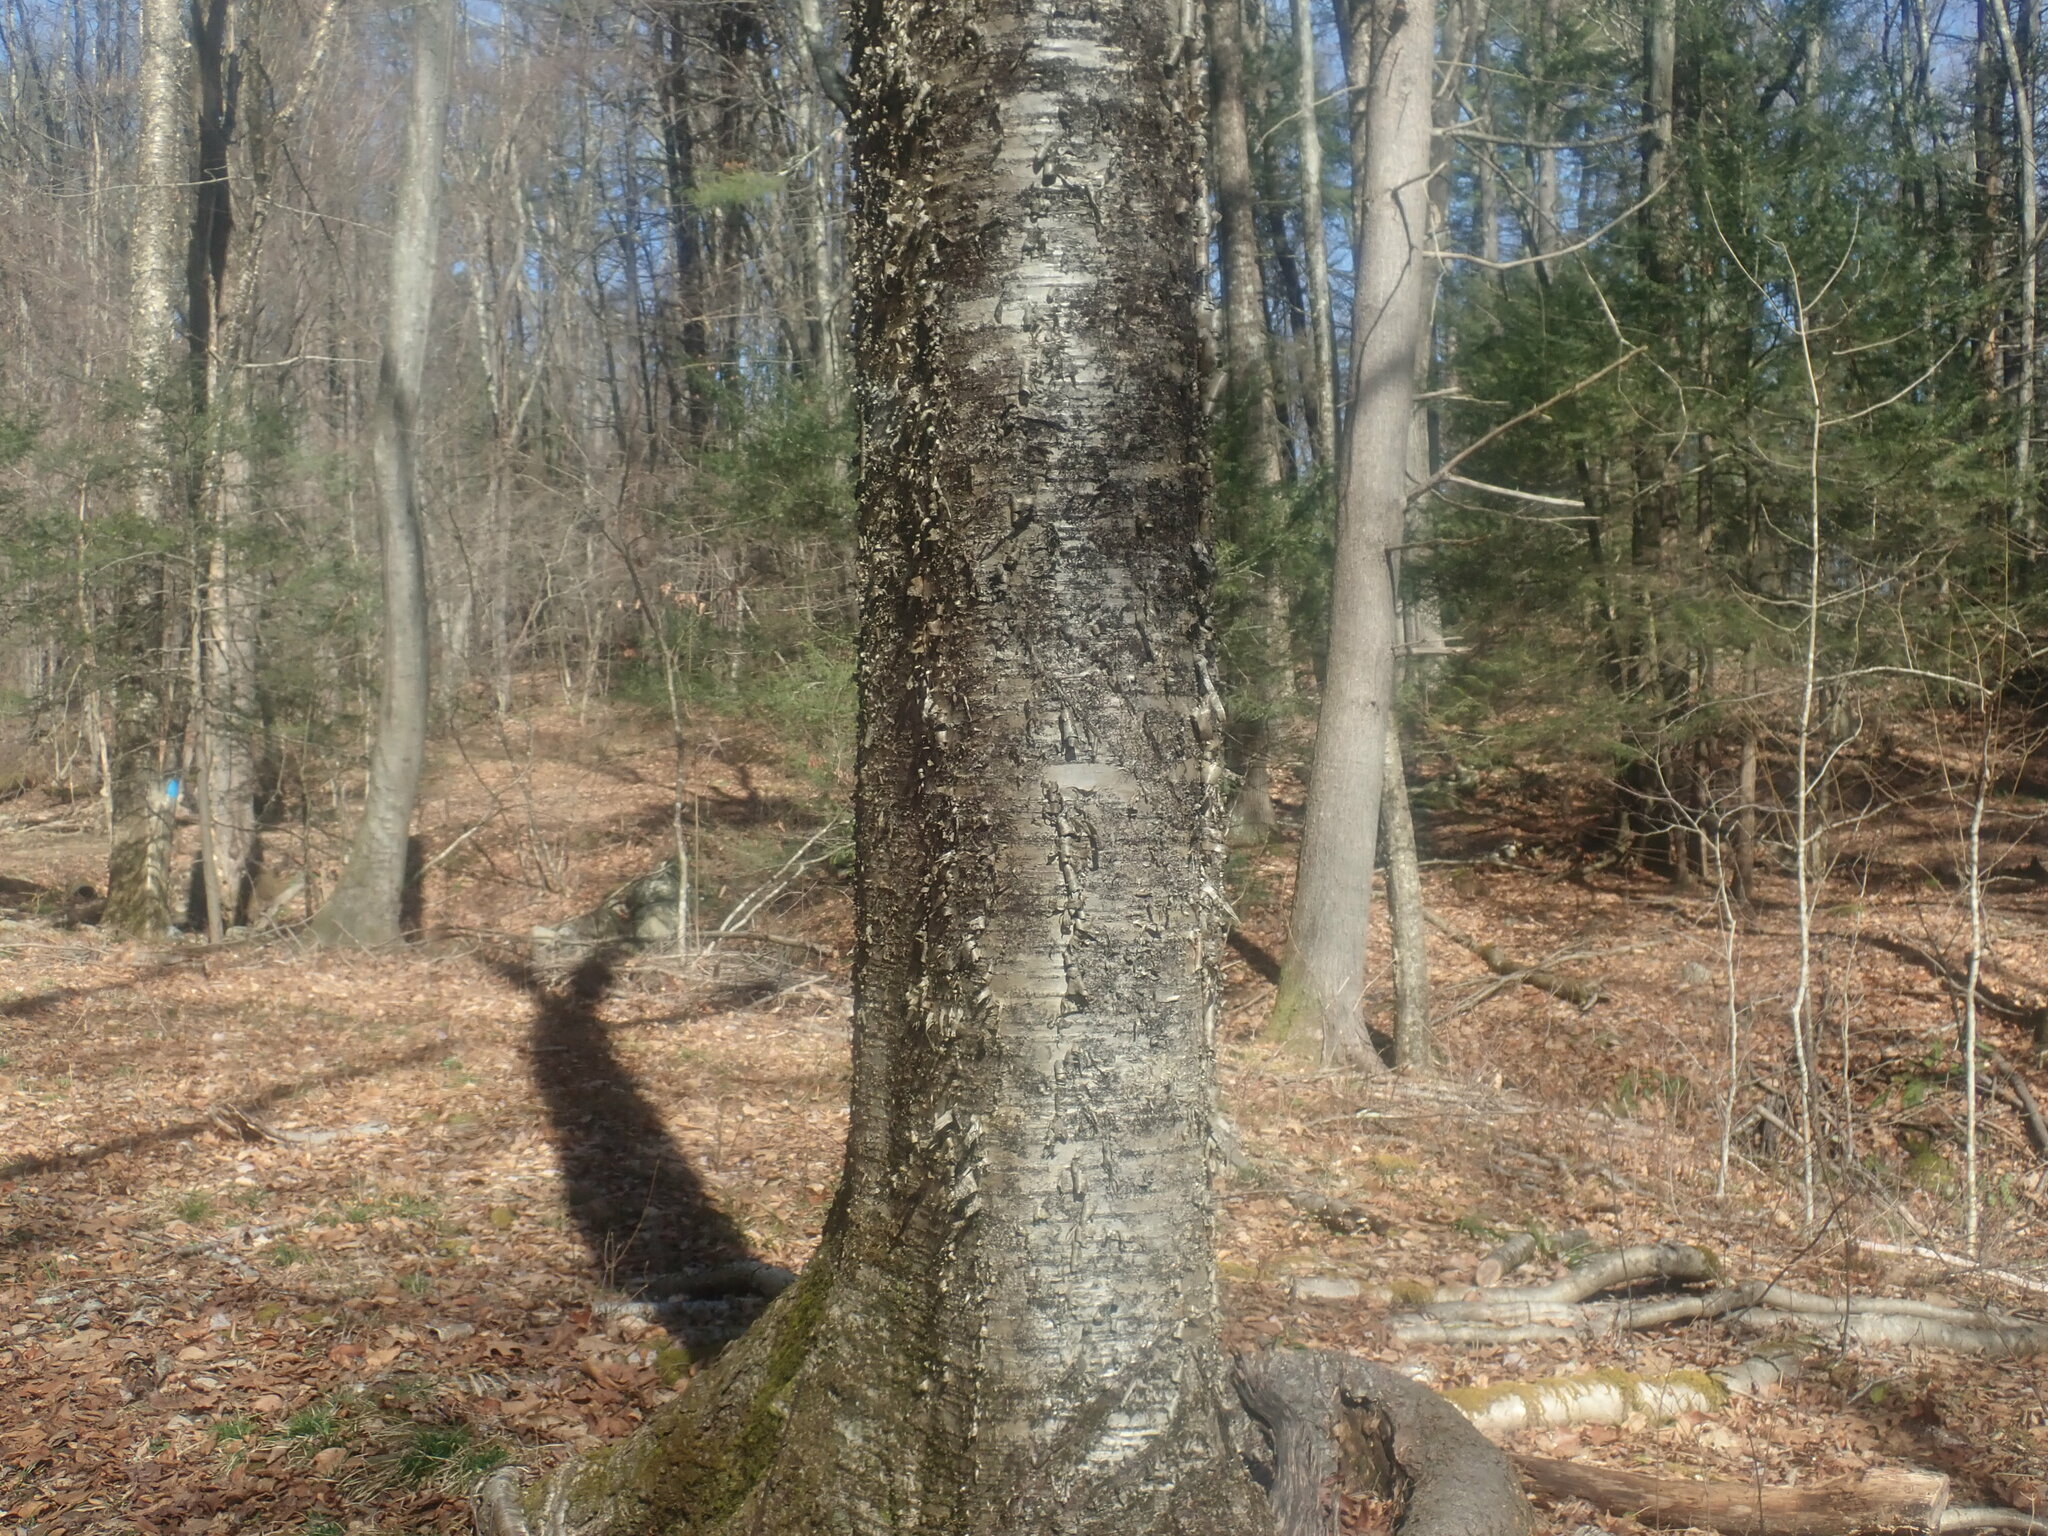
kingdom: Plantae
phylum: Tracheophyta
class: Magnoliopsida
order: Fagales
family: Betulaceae
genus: Betula
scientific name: Betula alleghaniensis
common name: Yellow birch
